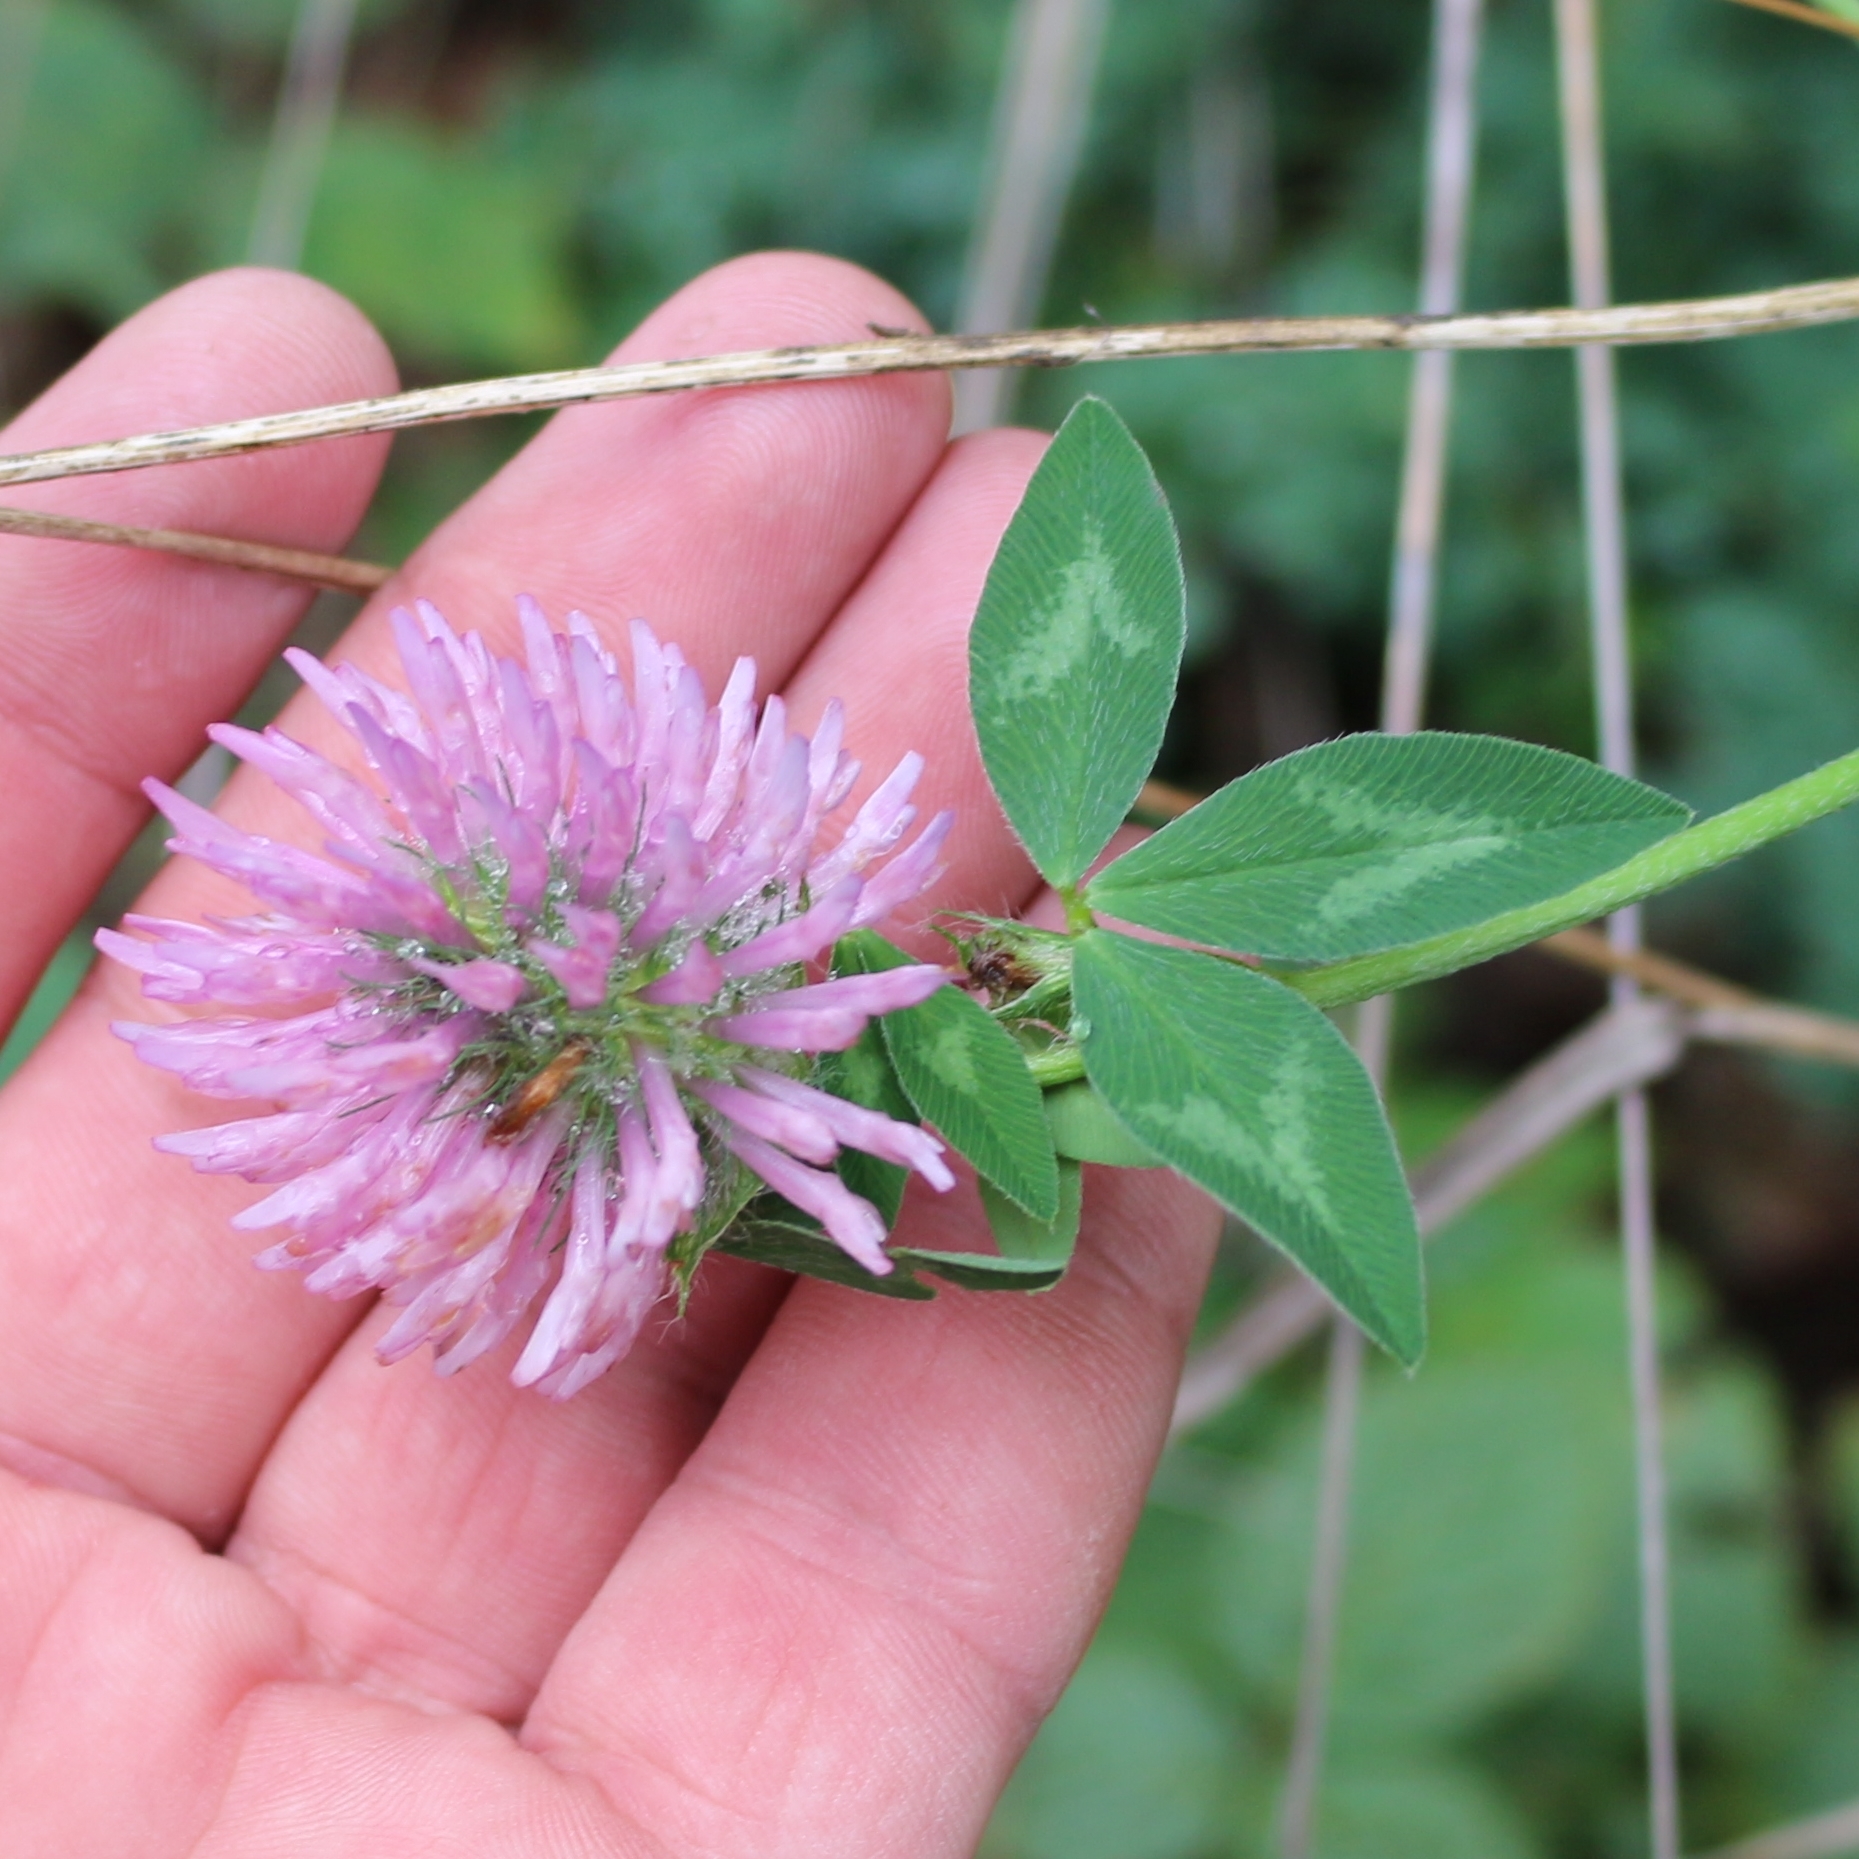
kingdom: Plantae
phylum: Tracheophyta
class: Magnoliopsida
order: Fabales
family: Fabaceae
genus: Trifolium
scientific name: Trifolium pratense
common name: Red clover
